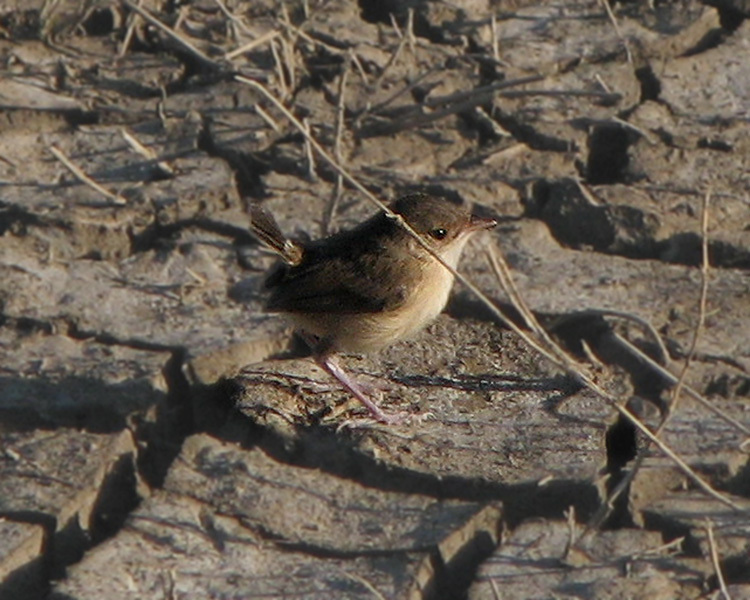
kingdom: Animalia
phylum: Chordata
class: Aves
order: Passeriformes
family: Maluridae
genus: Malurus
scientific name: Malurus melanocephalus
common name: Red-backed fairywren
